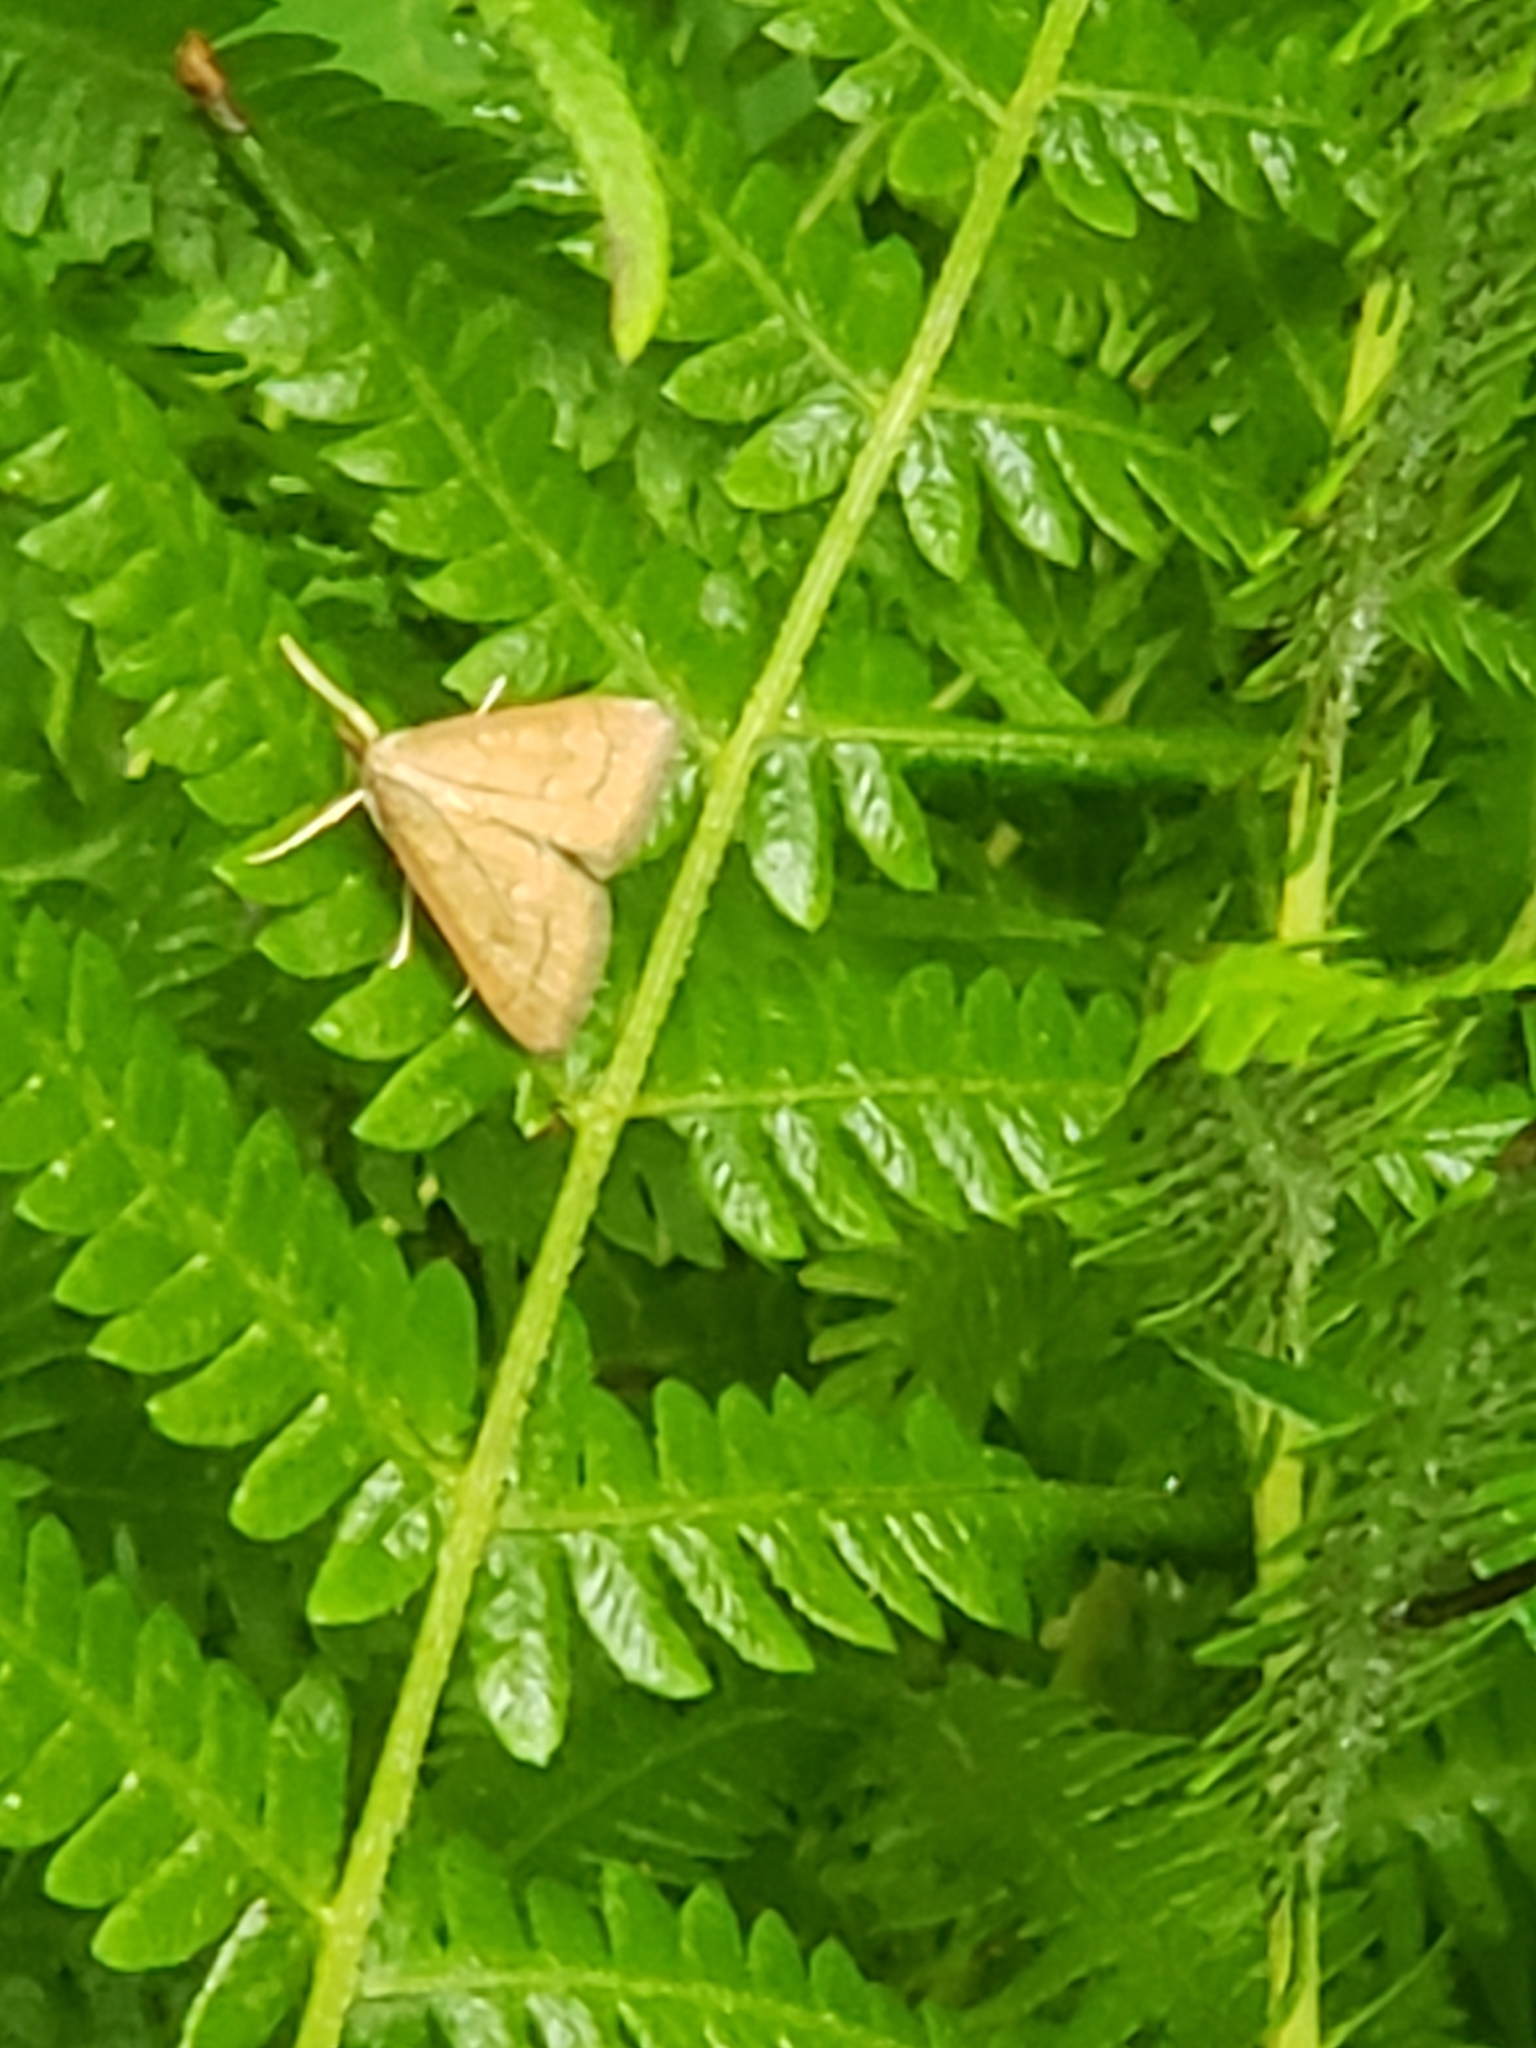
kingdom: Animalia
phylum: Arthropoda
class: Insecta
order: Lepidoptera
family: Crambidae
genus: Udea
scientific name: Udea rubigalis
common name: Celery leaftier moth
